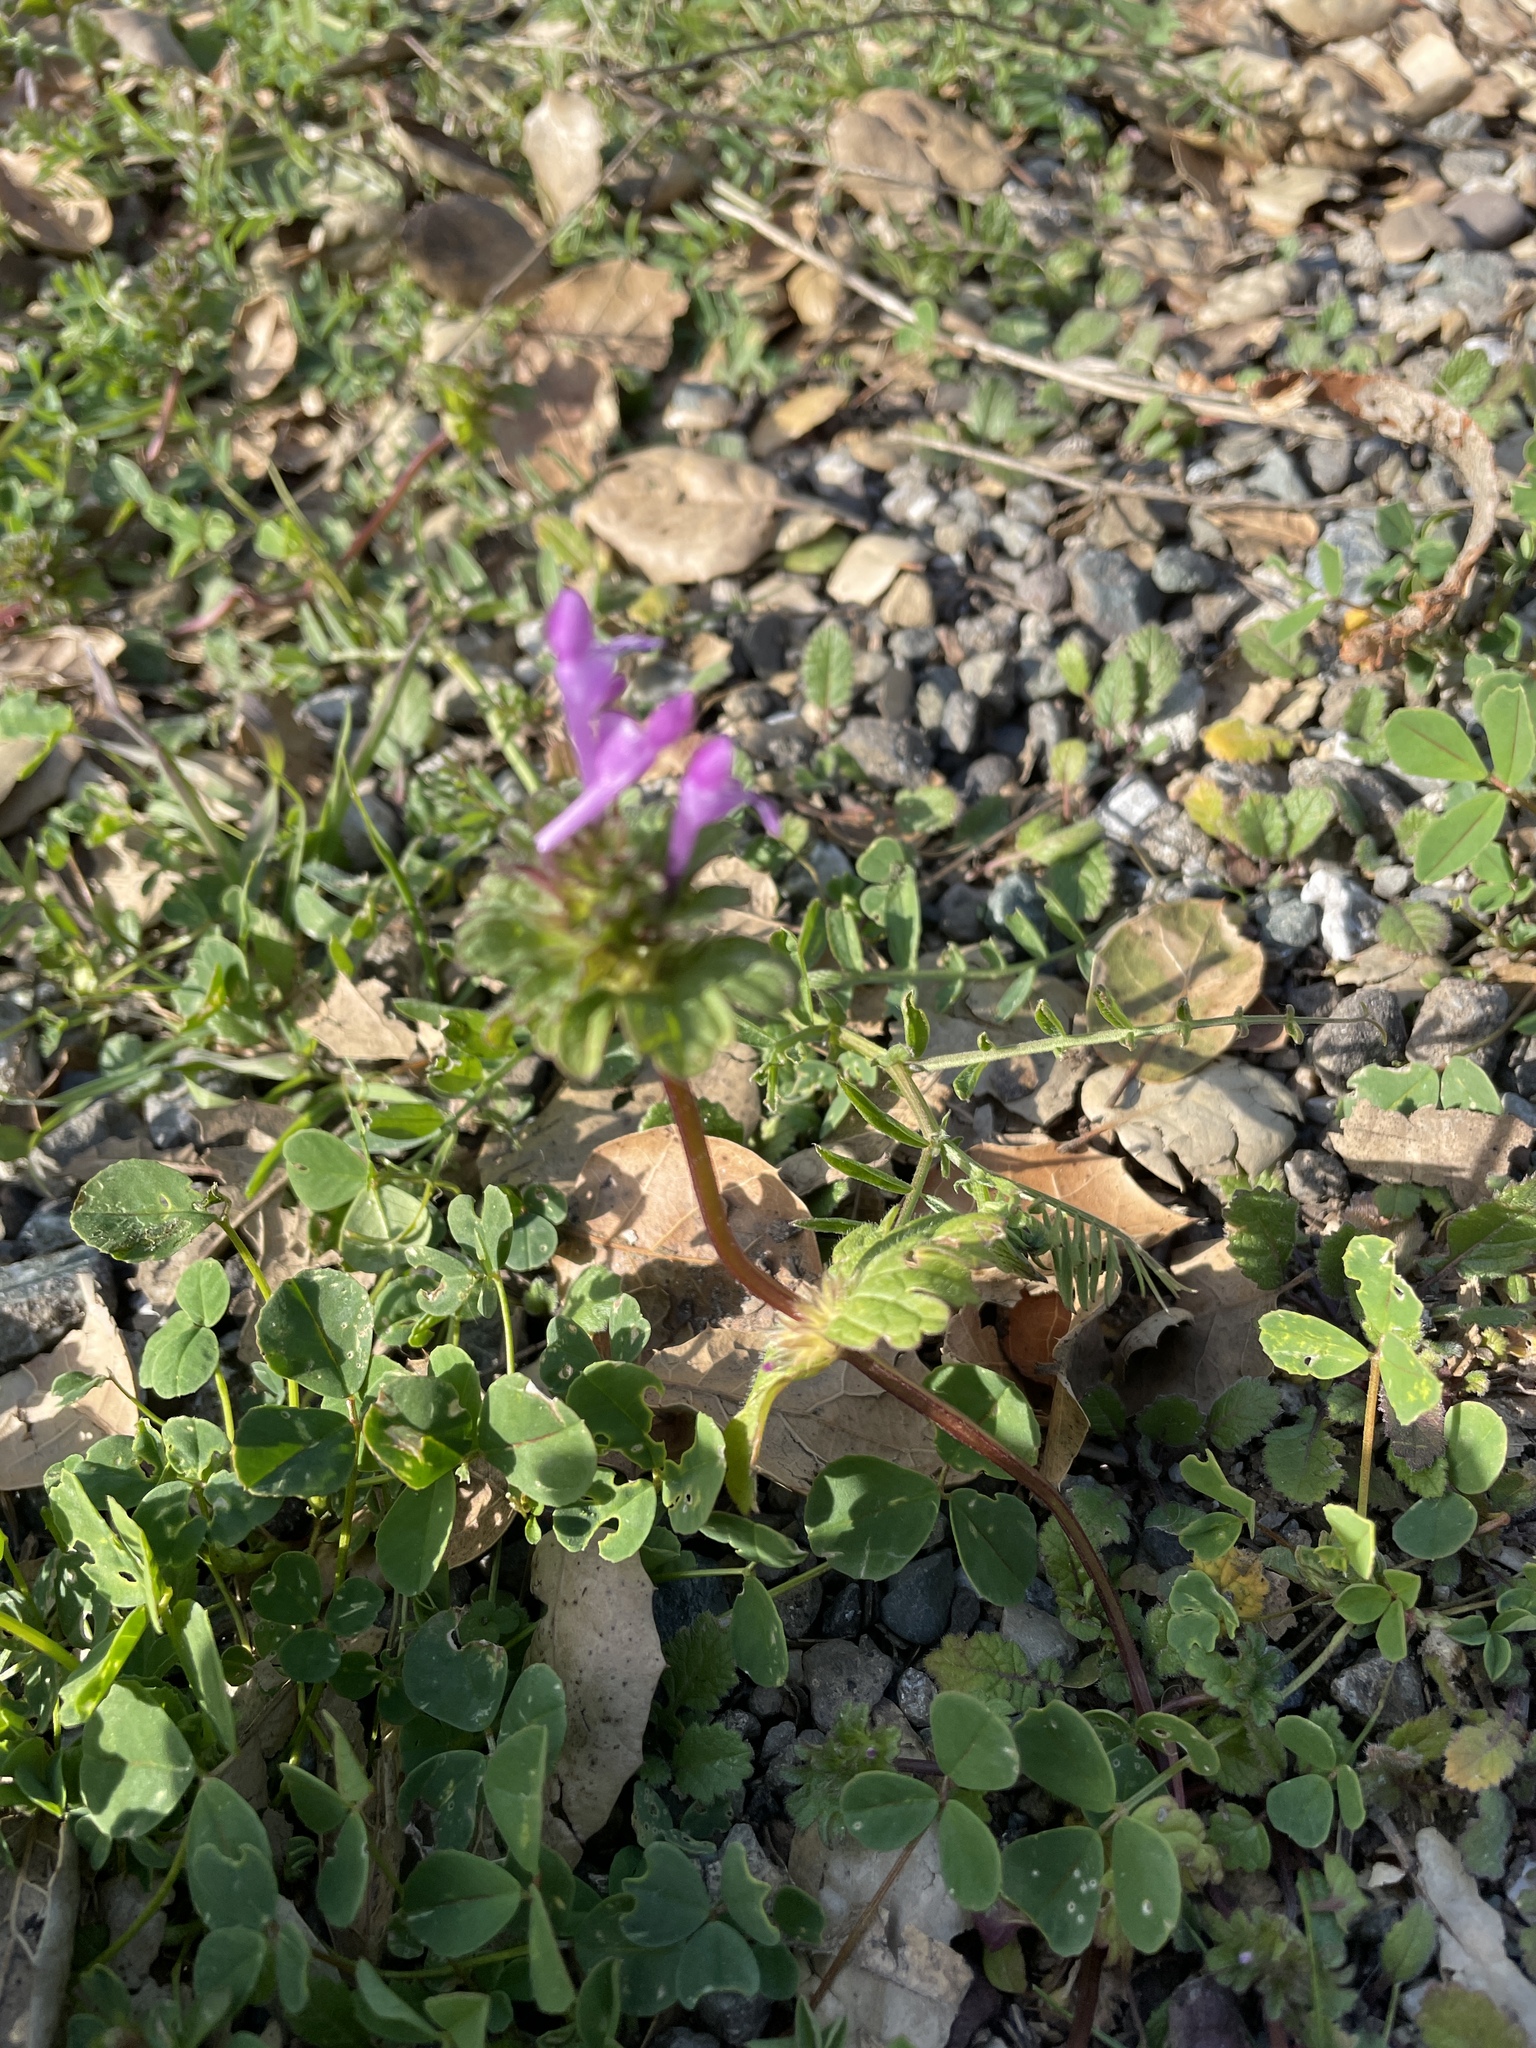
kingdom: Plantae
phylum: Tracheophyta
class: Magnoliopsida
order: Lamiales
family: Lamiaceae
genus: Lamium
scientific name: Lamium amplexicaule
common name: Henbit dead-nettle
